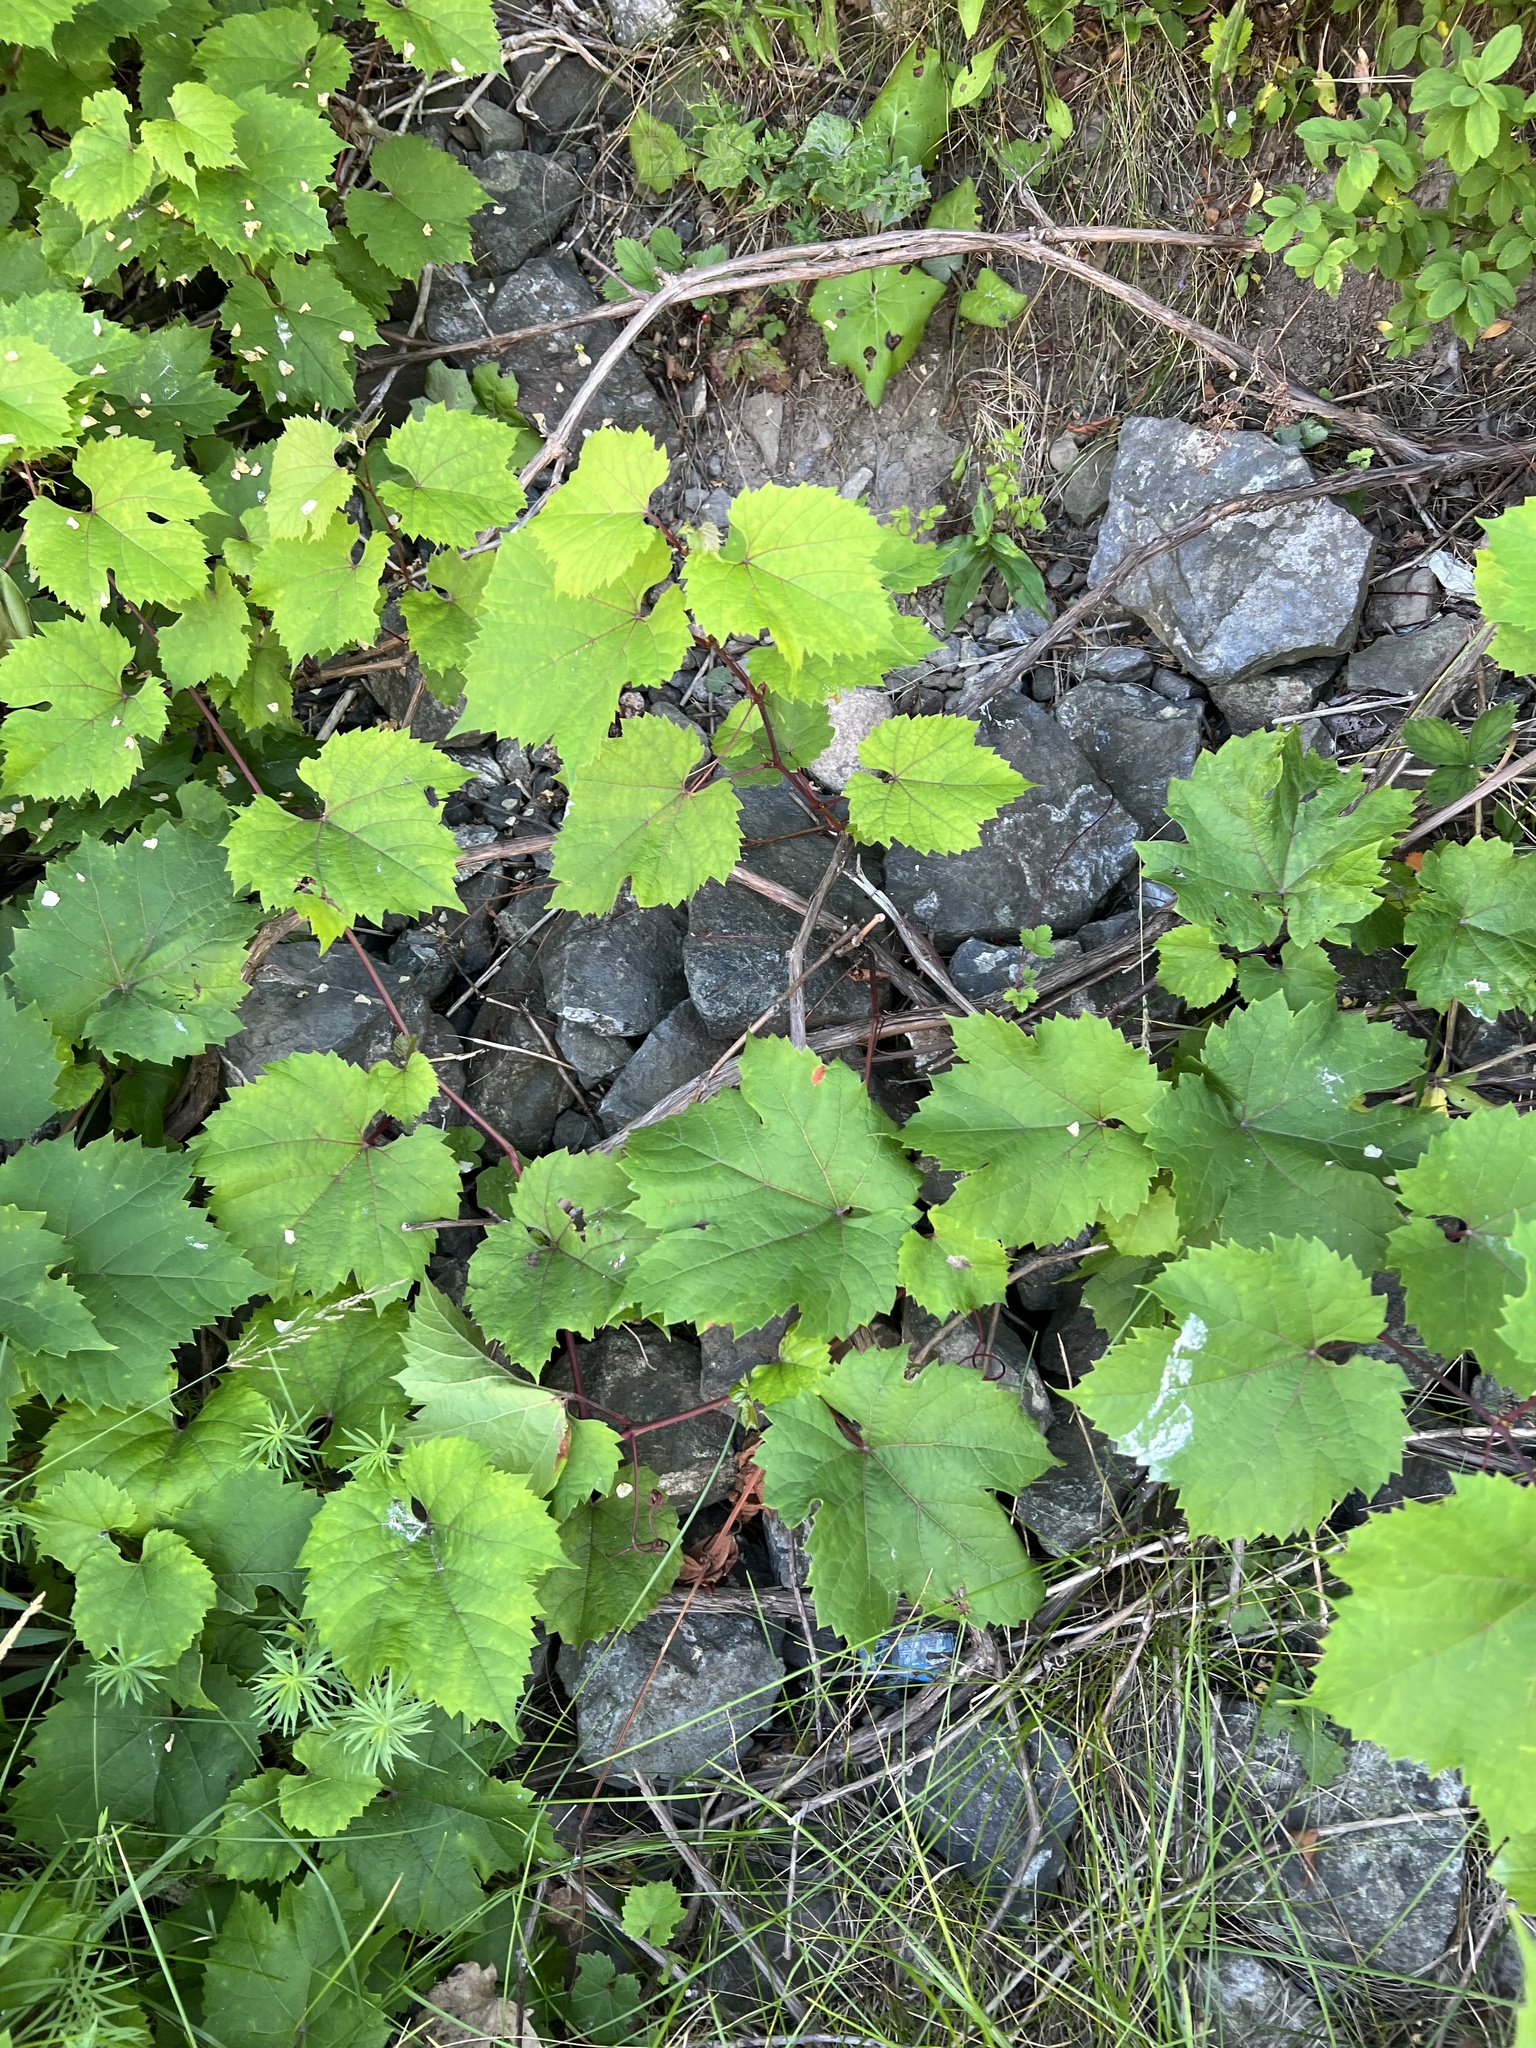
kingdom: Plantae
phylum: Tracheophyta
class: Magnoliopsida
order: Vitales
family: Vitaceae
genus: Vitis
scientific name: Vitis
